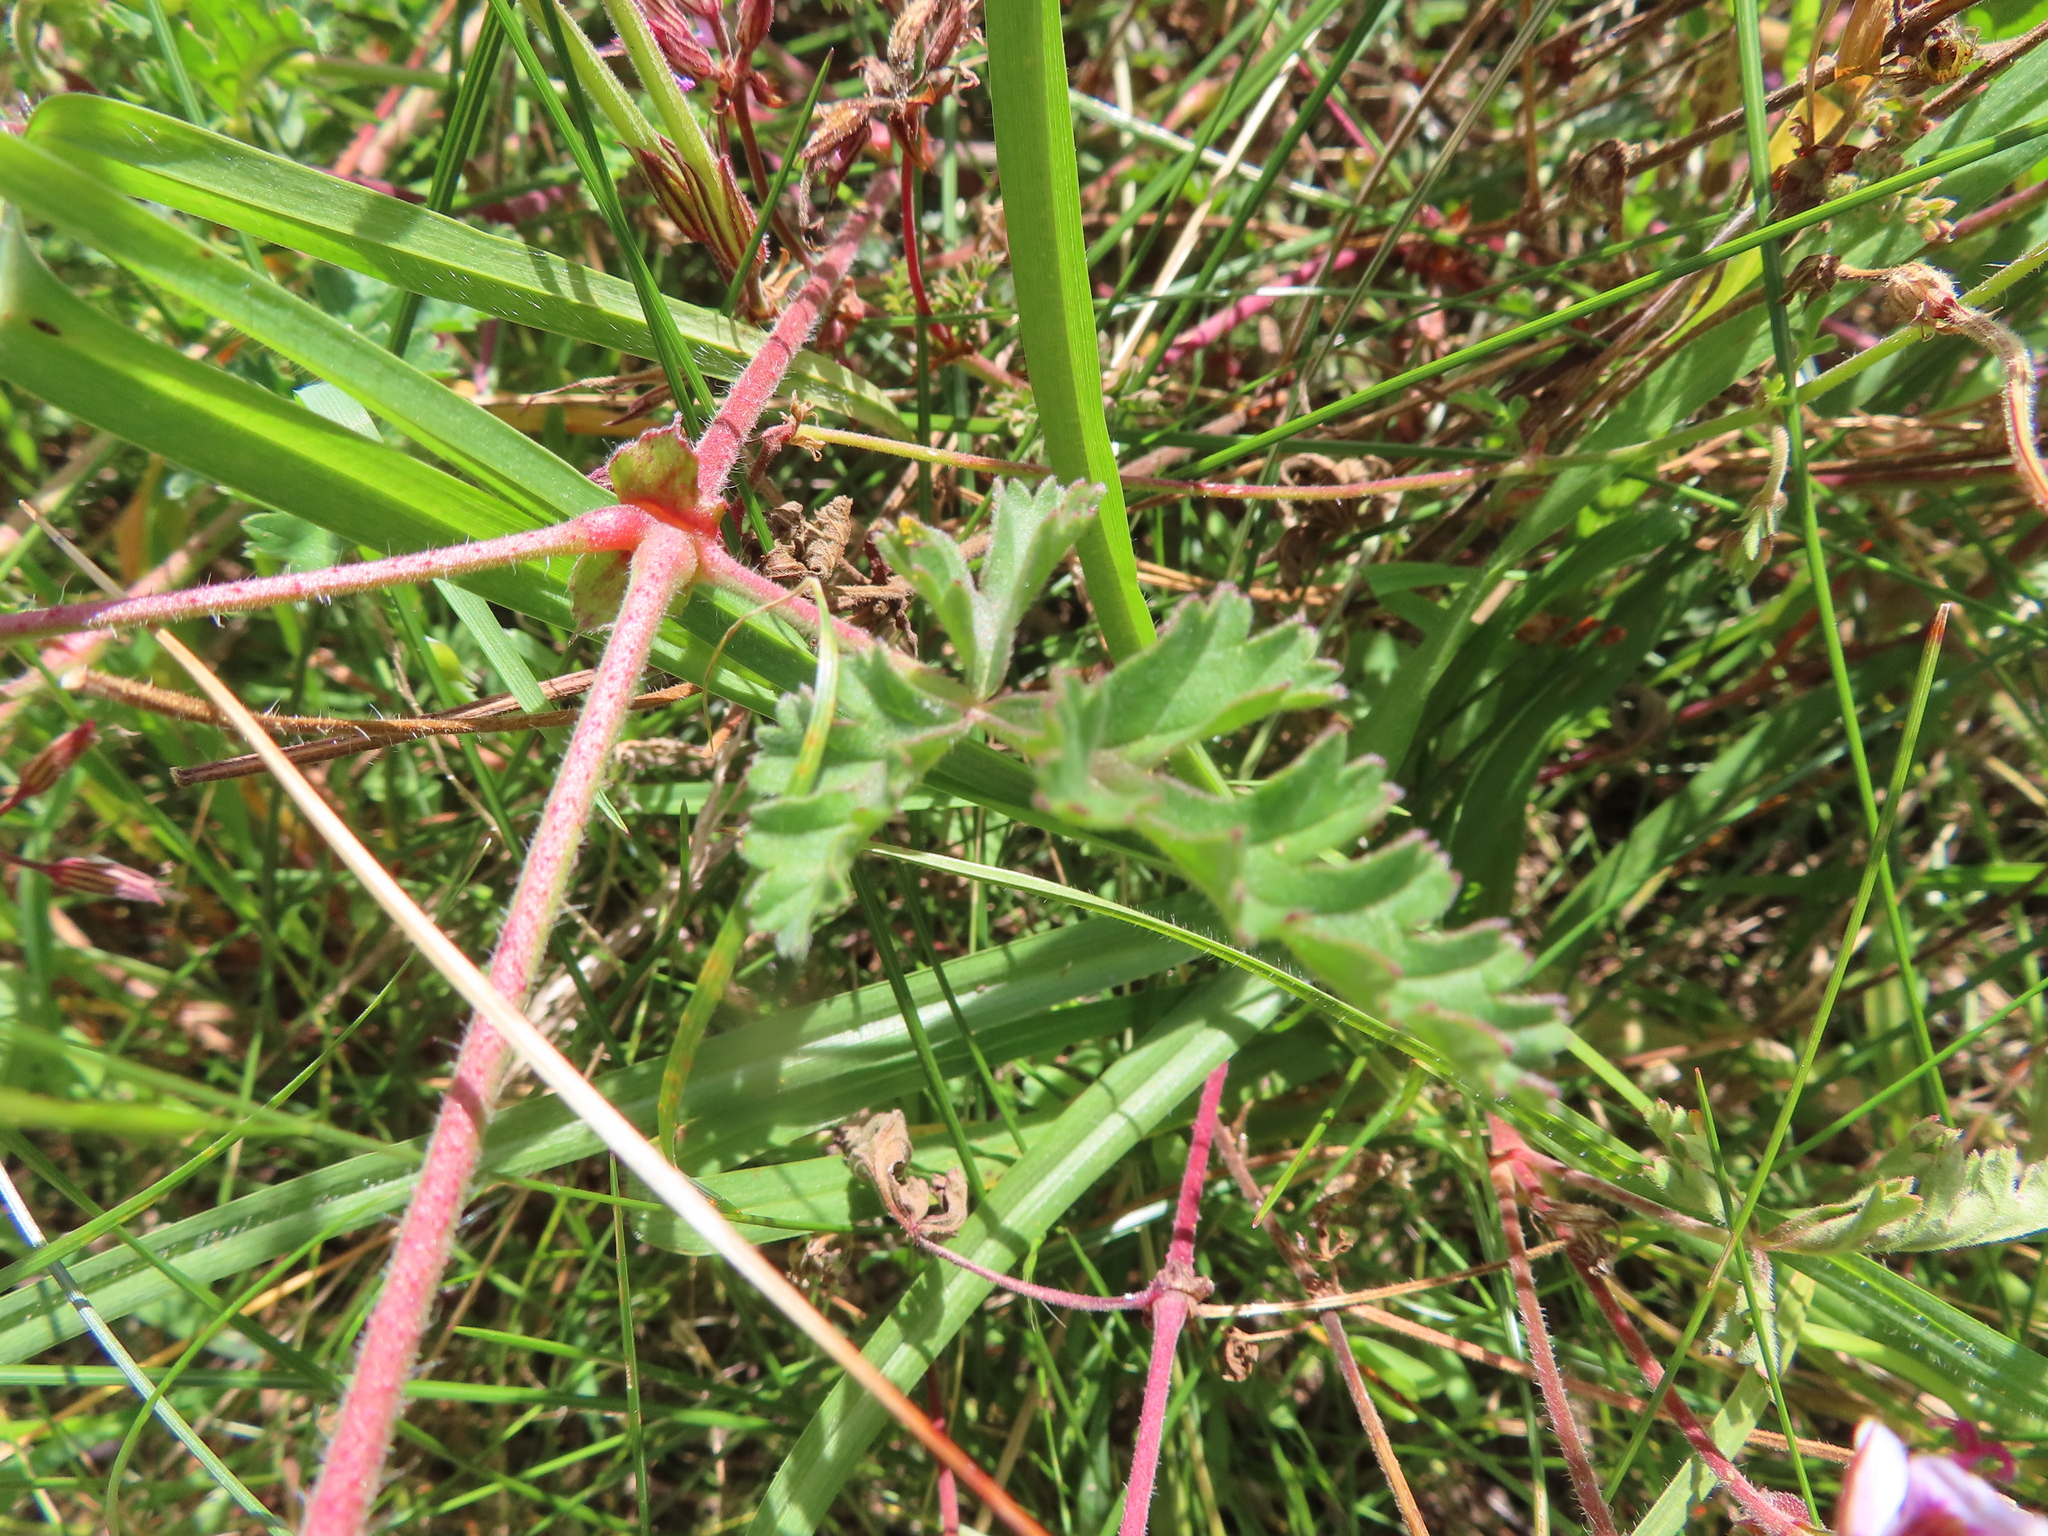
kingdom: Plantae
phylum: Tracheophyta
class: Magnoliopsida
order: Geraniales
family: Geraniaceae
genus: Pelargonium
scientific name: Pelargonium myrrhifolium
